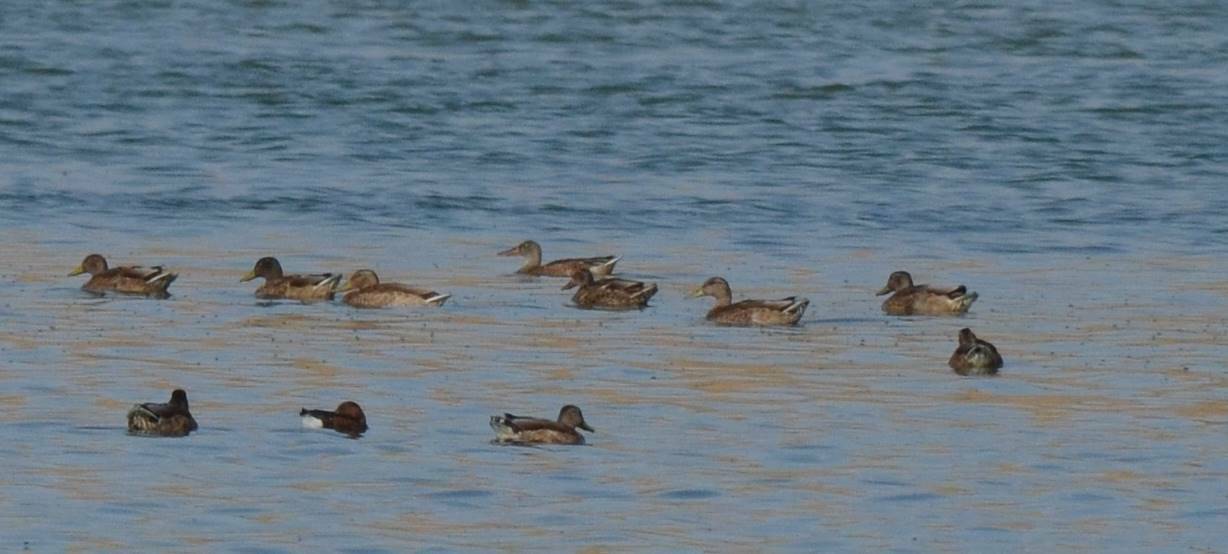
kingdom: Animalia
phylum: Chordata
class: Aves
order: Anseriformes
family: Anatidae
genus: Anas
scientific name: Anas platyrhynchos
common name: Mallard
